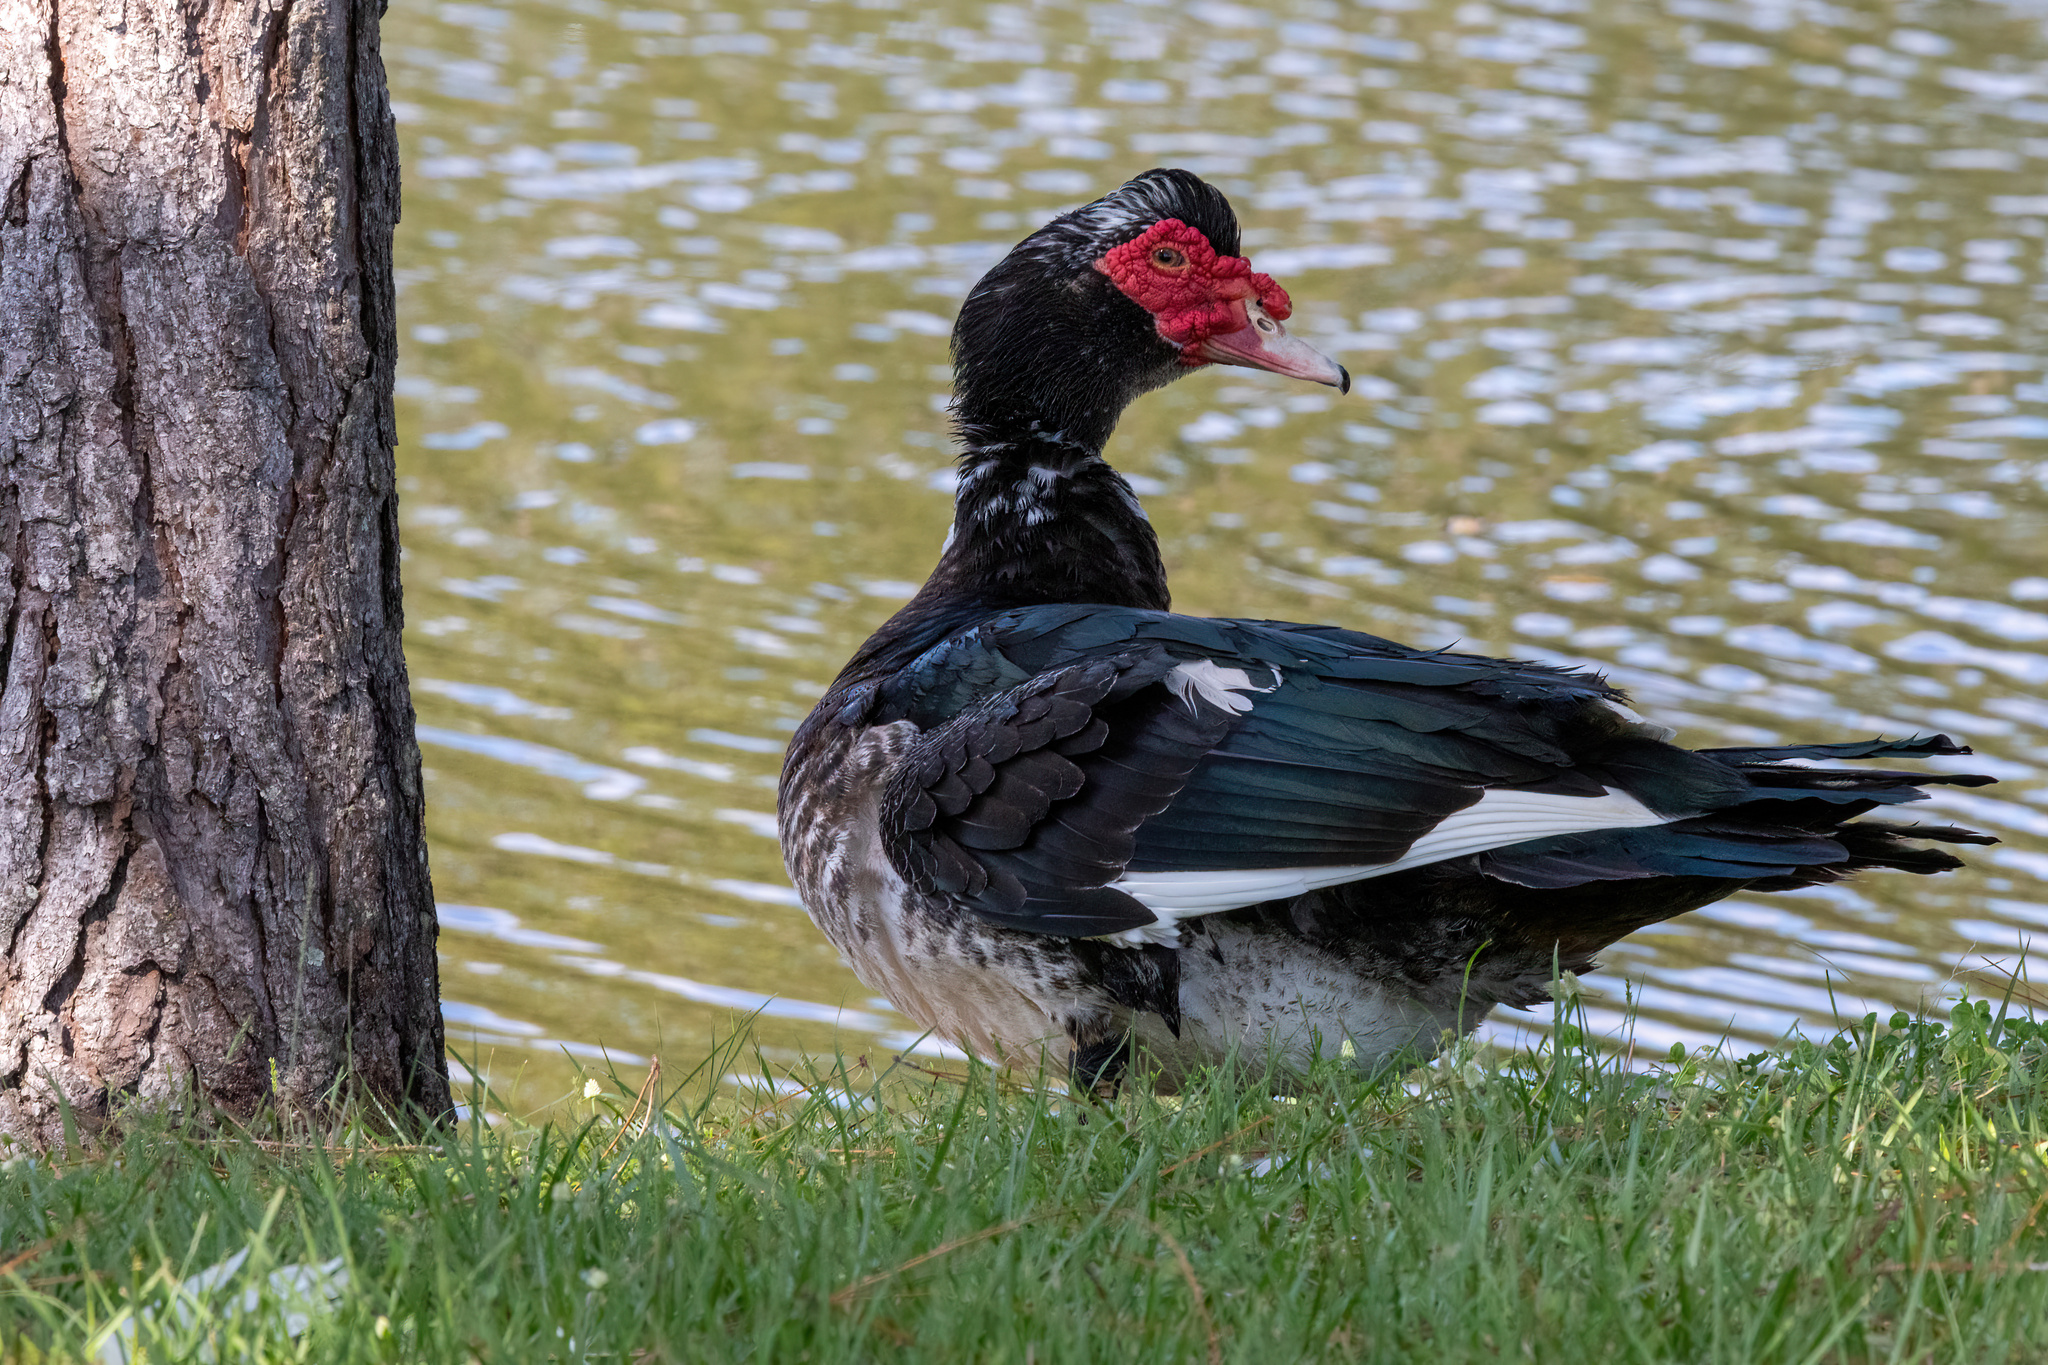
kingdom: Animalia
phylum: Chordata
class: Aves
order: Anseriformes
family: Anatidae
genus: Cairina
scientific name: Cairina moschata
